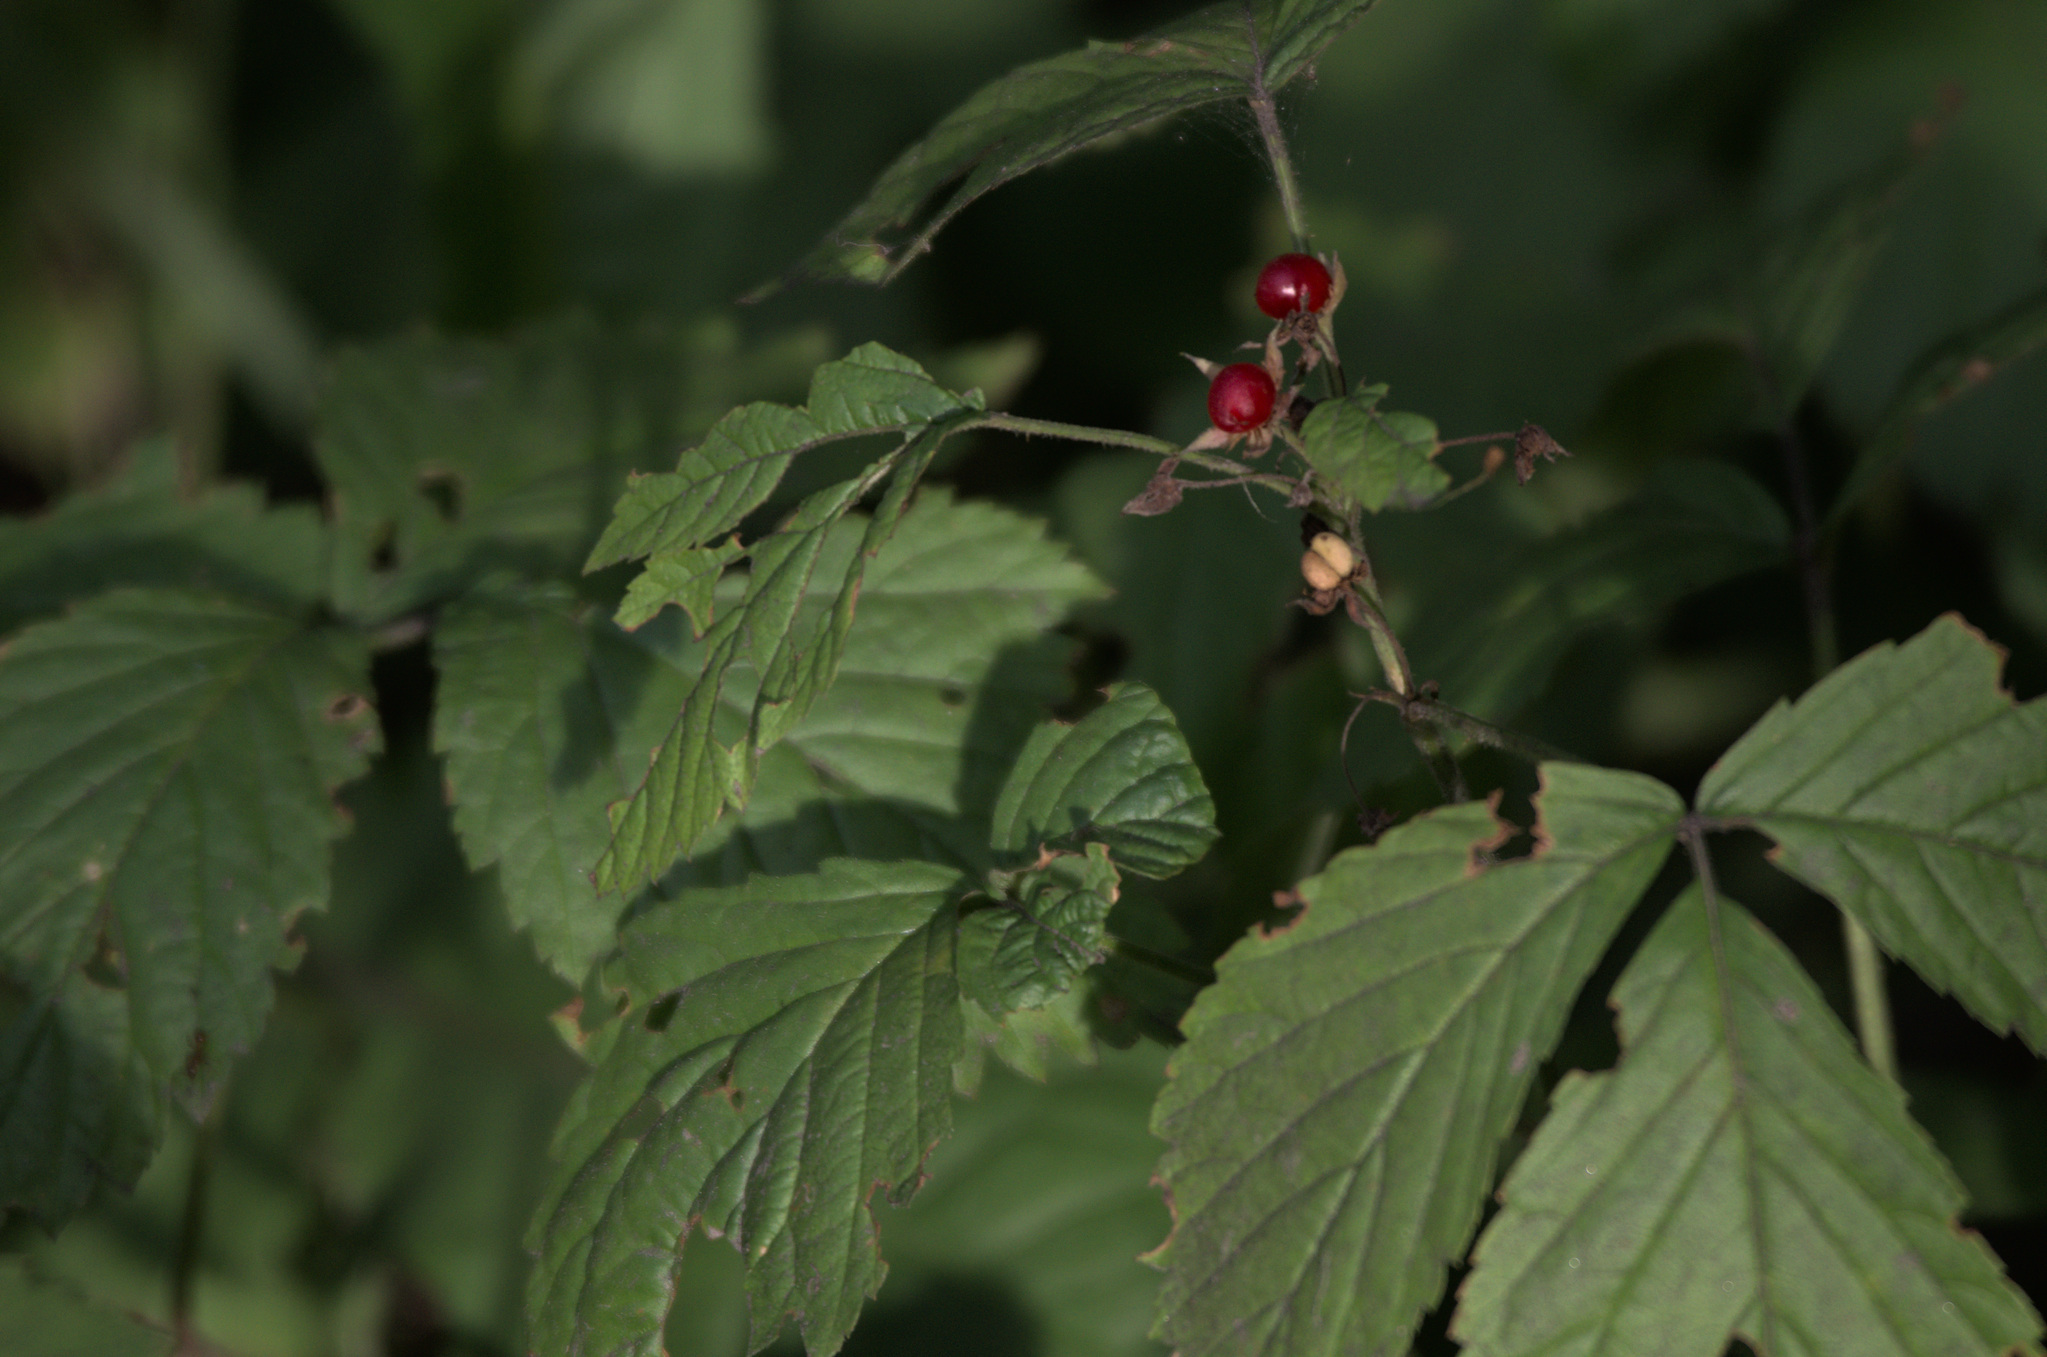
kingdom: Plantae
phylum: Tracheophyta
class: Magnoliopsida
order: Rosales
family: Rosaceae
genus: Rubus
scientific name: Rubus saxatilis
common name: Stone bramble
